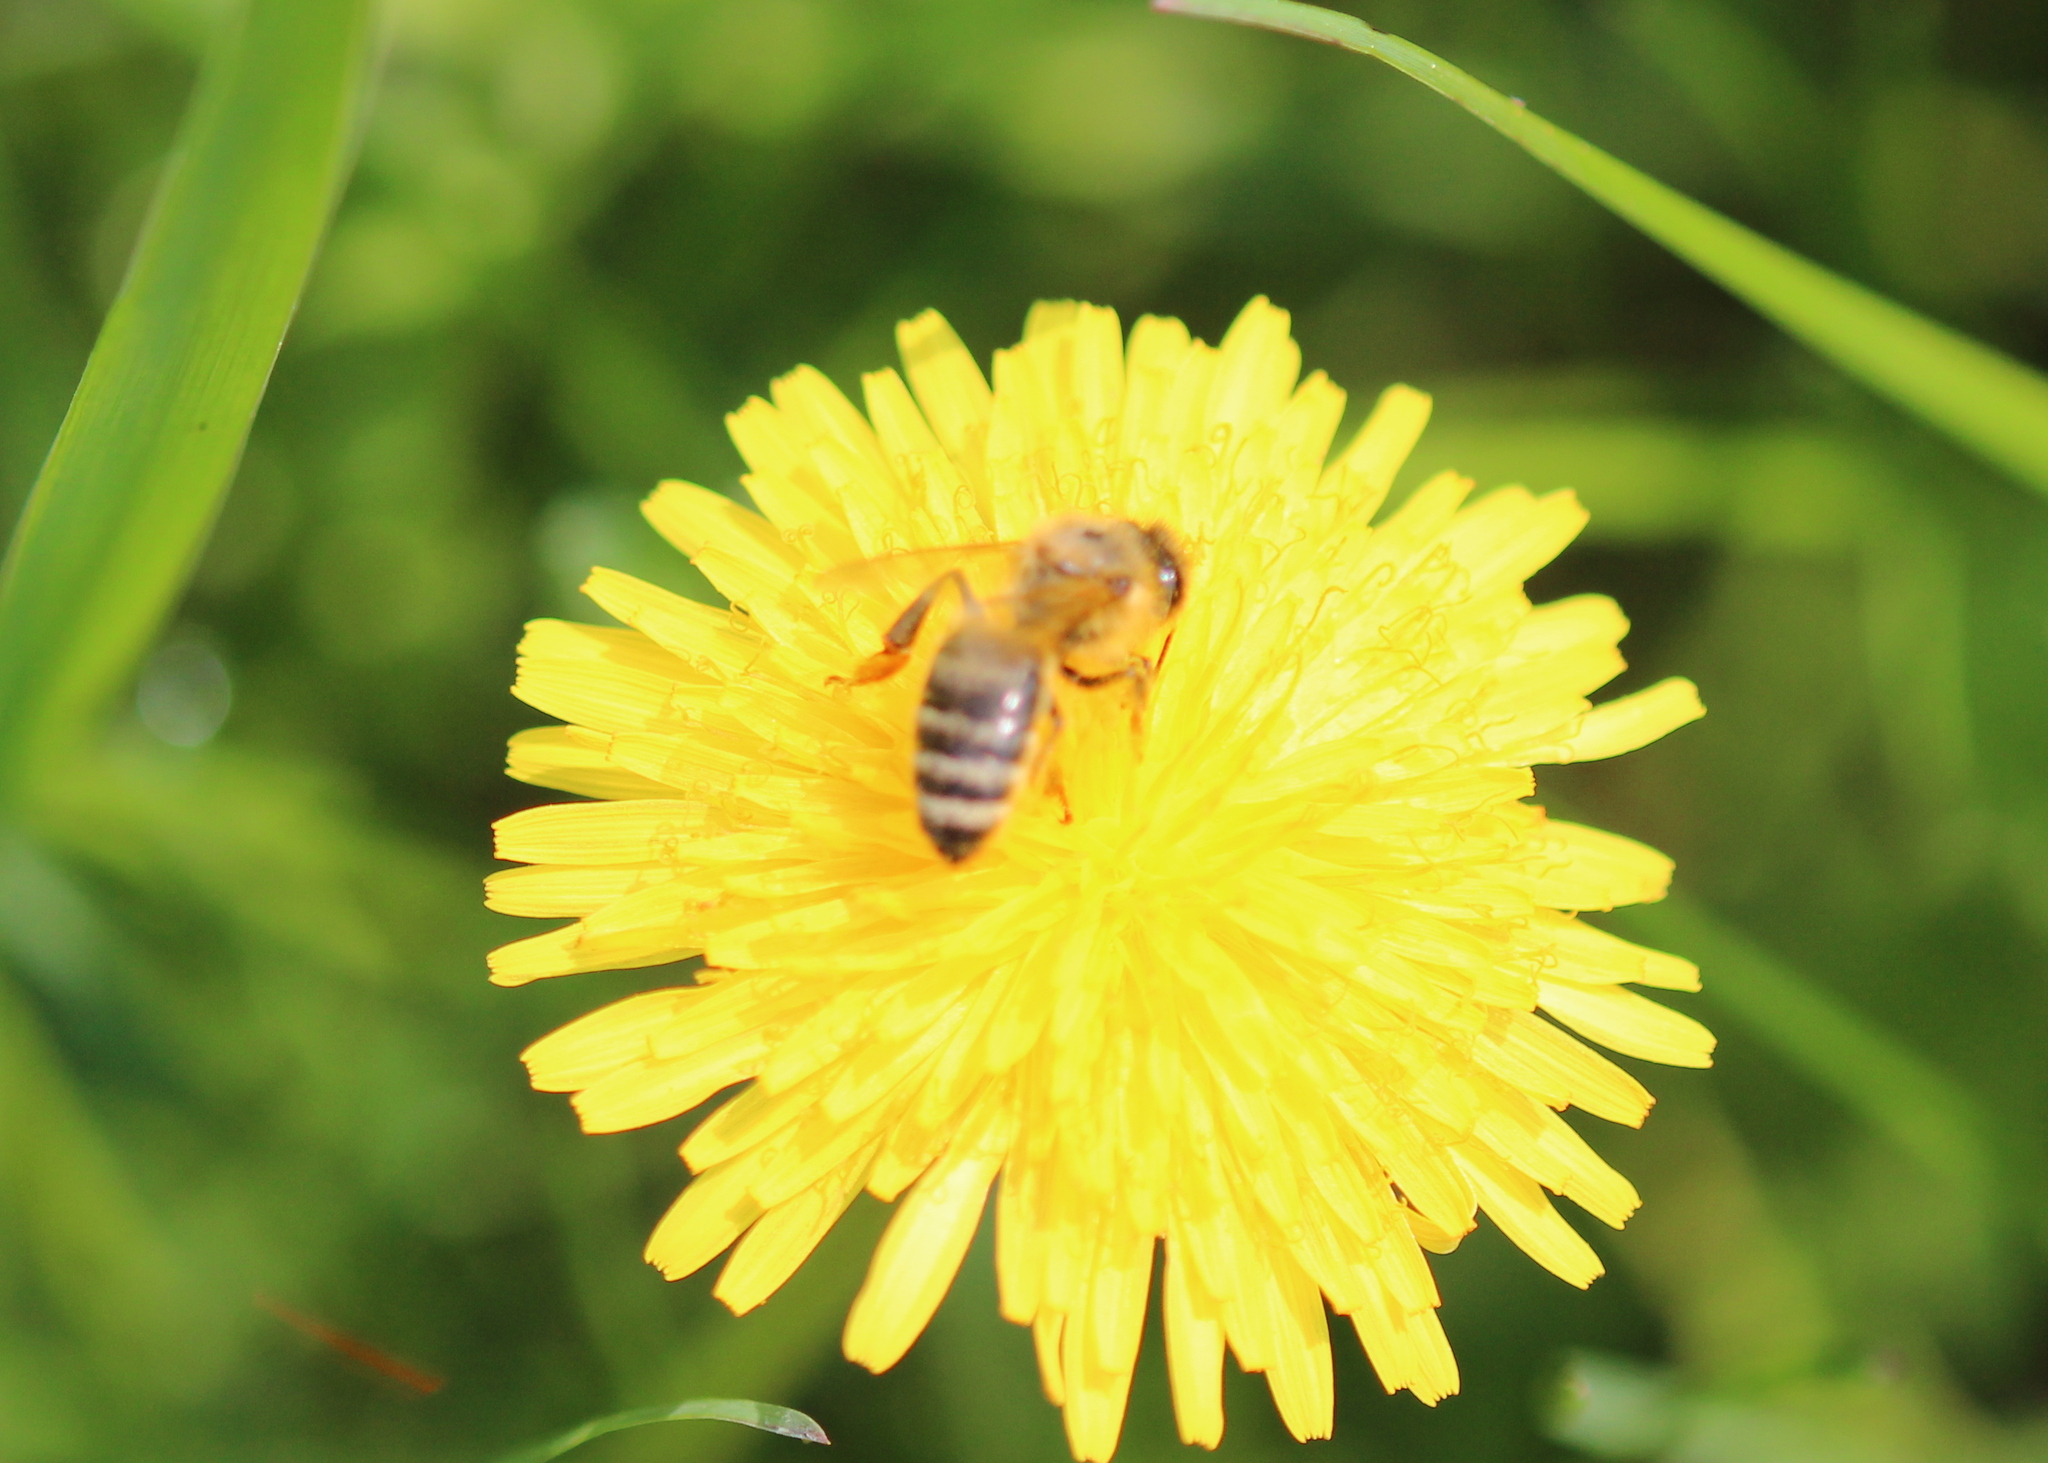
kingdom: Animalia
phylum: Arthropoda
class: Insecta
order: Hymenoptera
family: Apidae
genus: Apis
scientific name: Apis mellifera
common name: Honey bee
